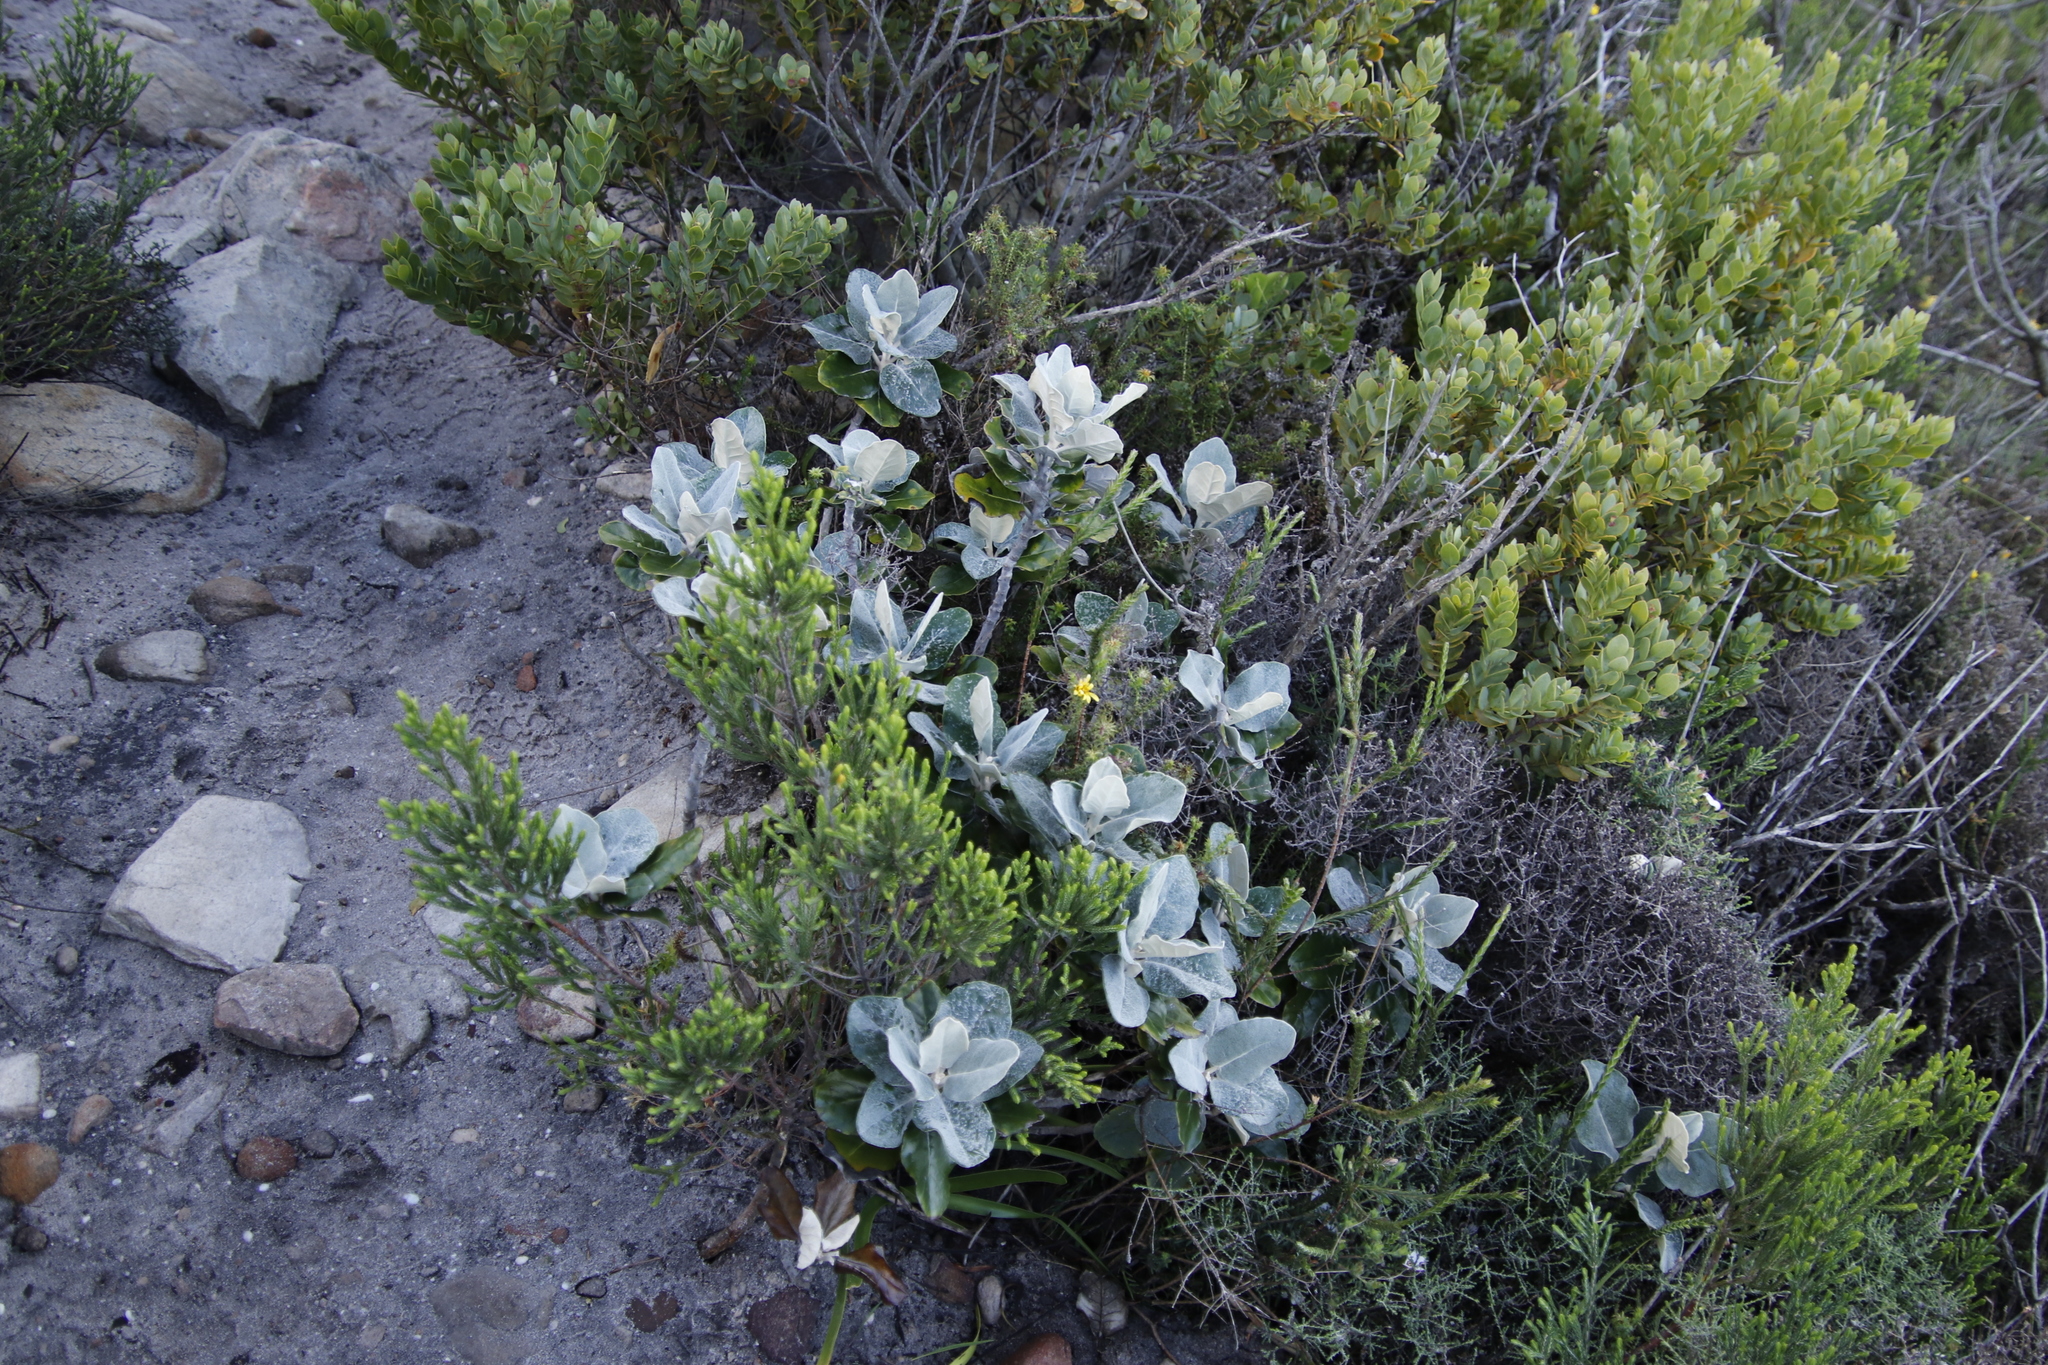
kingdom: Plantae
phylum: Tracheophyta
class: Magnoliopsida
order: Asterales
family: Asteraceae
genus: Capelio
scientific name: Capelio tabularis
